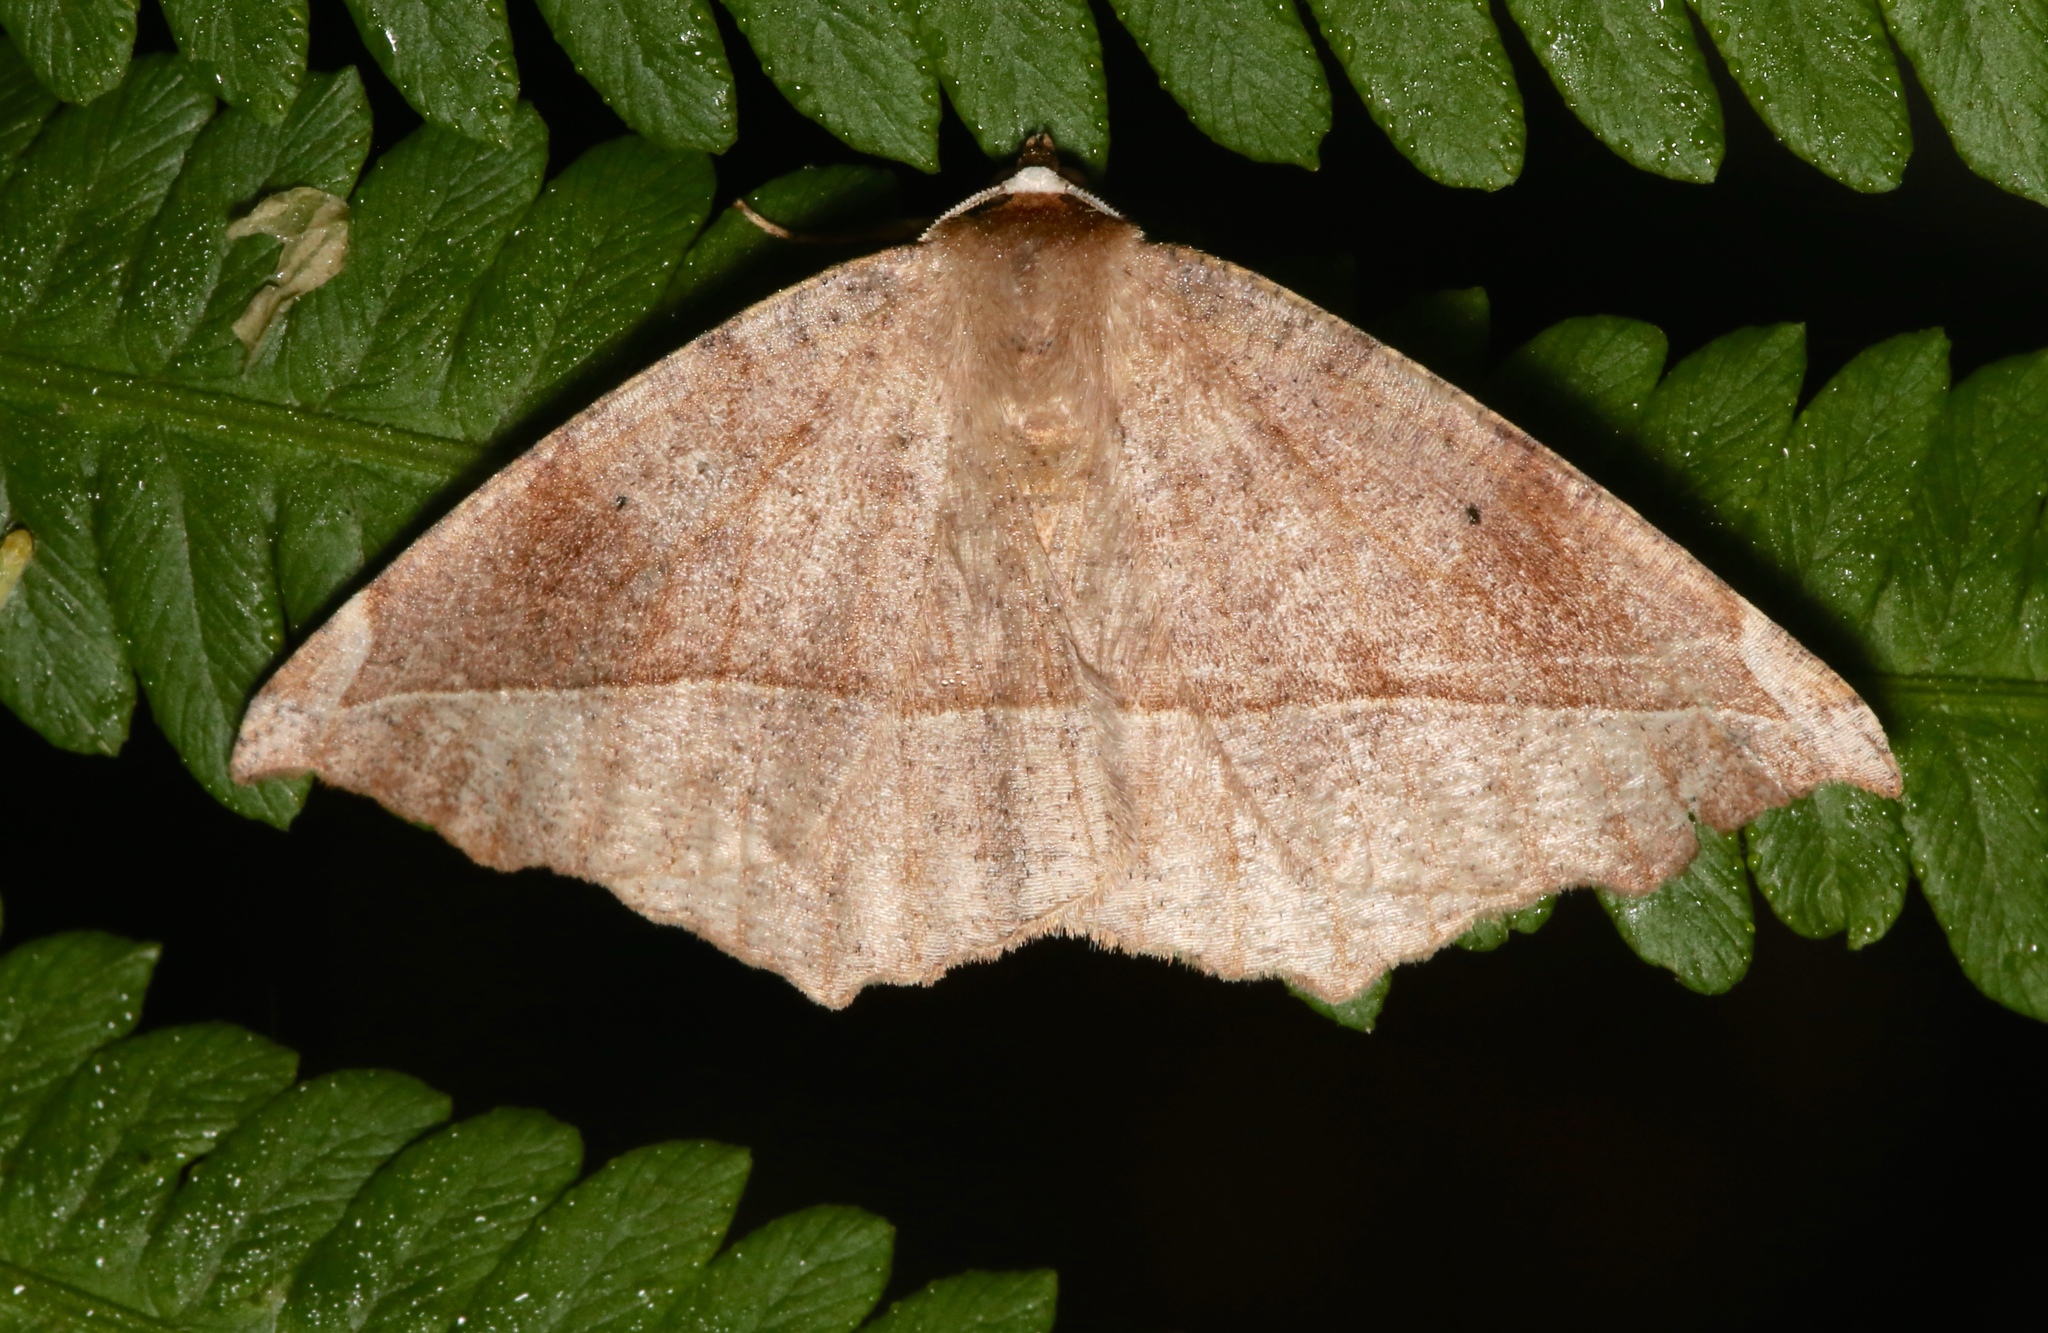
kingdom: Animalia
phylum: Arthropoda
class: Insecta
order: Lepidoptera
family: Geometridae
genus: Eutrapela
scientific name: Eutrapela clemataria
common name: Curved-toothed geometer
